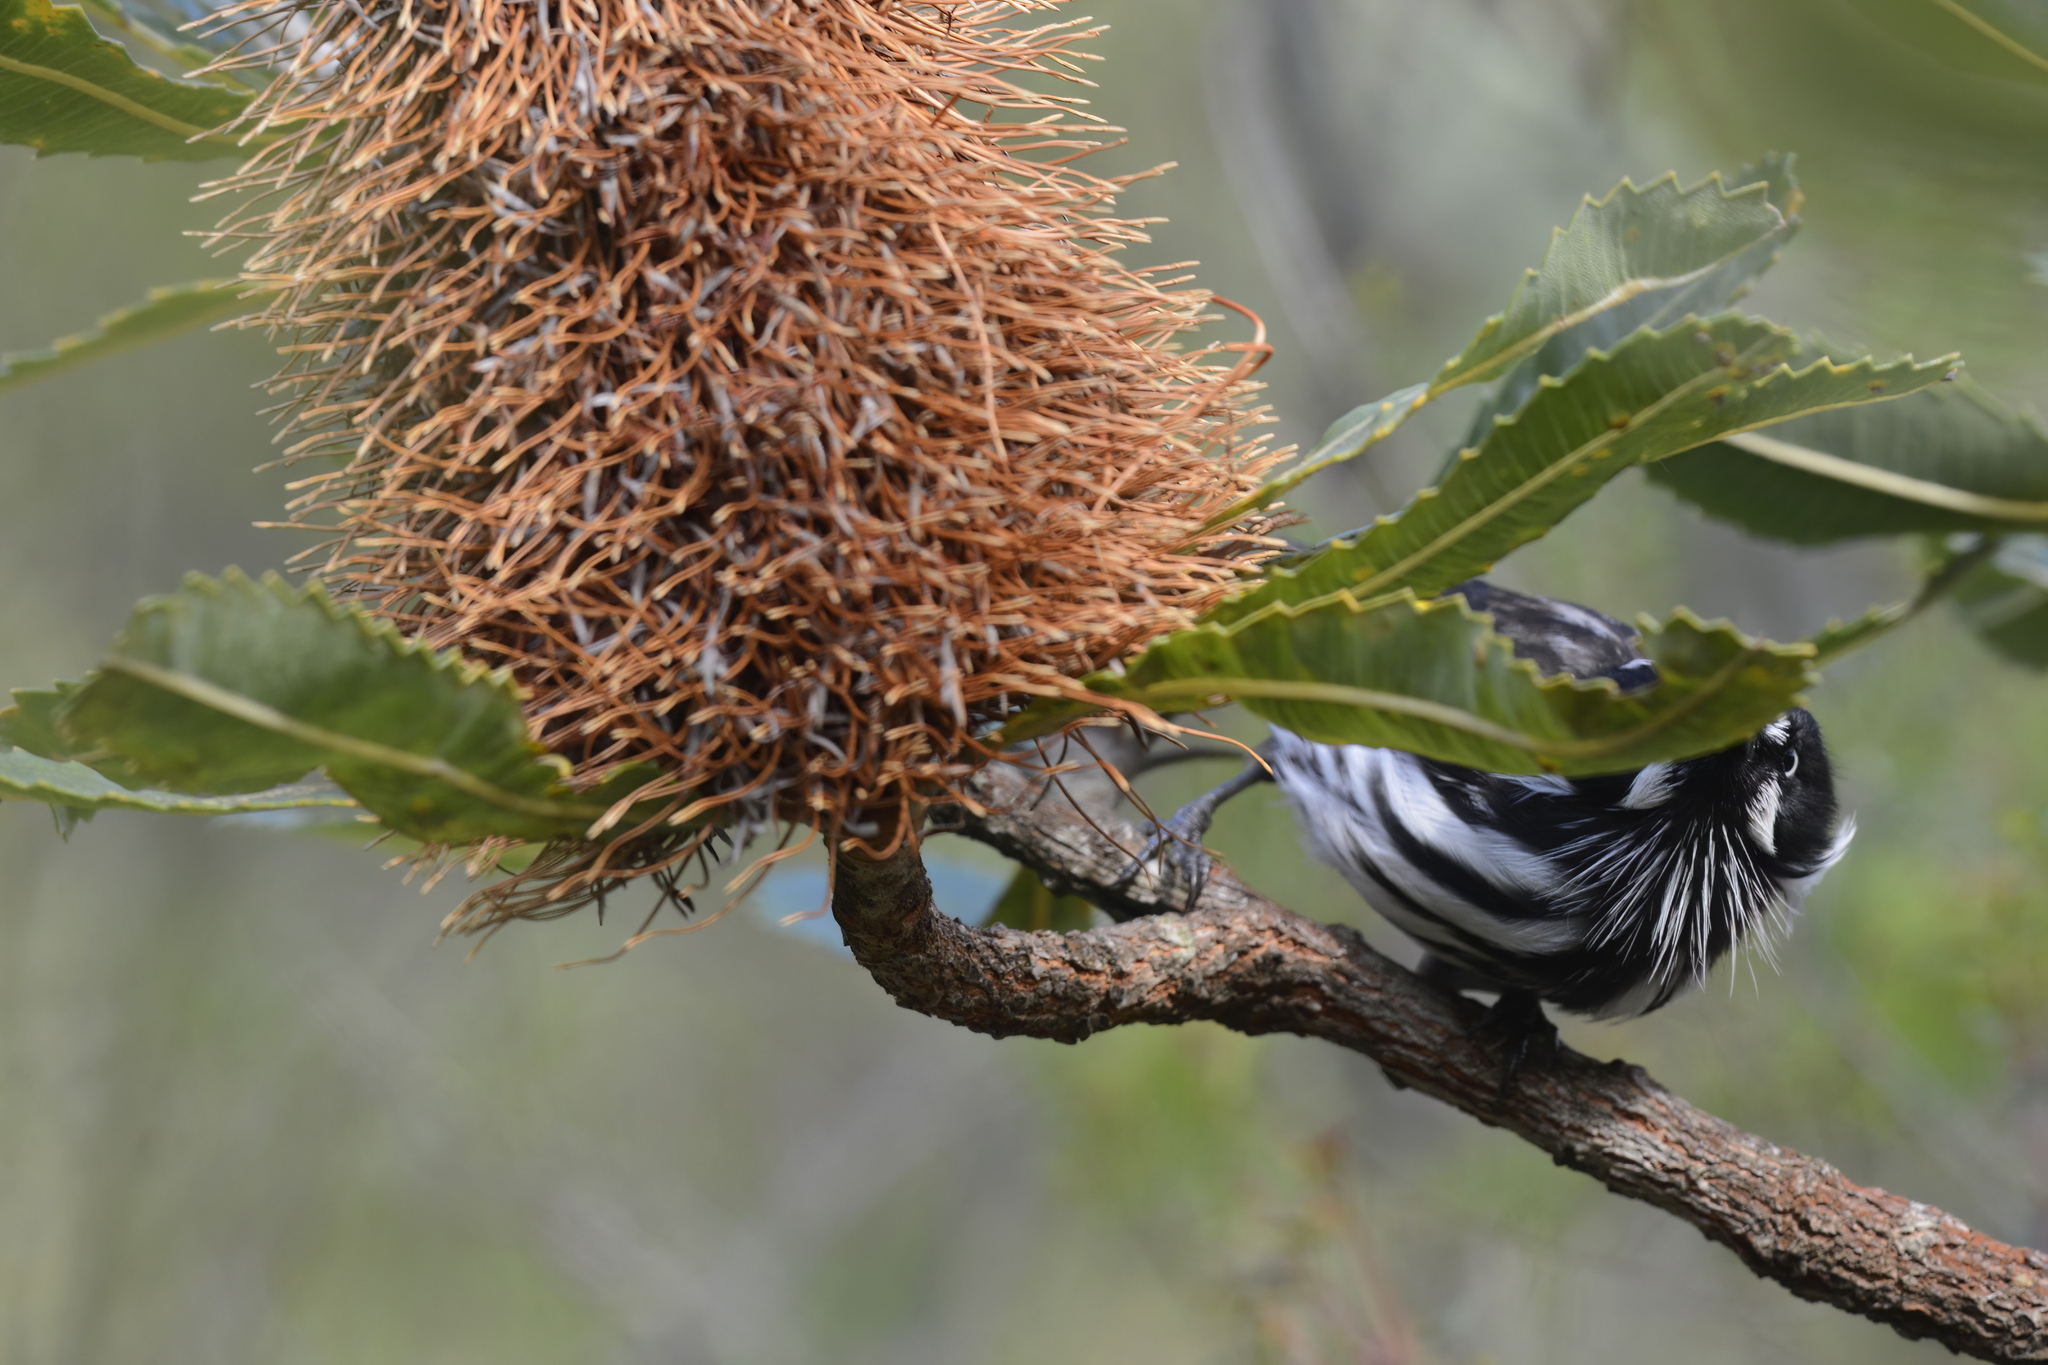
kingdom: Animalia
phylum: Chordata
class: Aves
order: Passeriformes
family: Meliphagidae
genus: Phylidonyris
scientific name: Phylidonyris novaehollandiae
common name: New holland honeyeater
